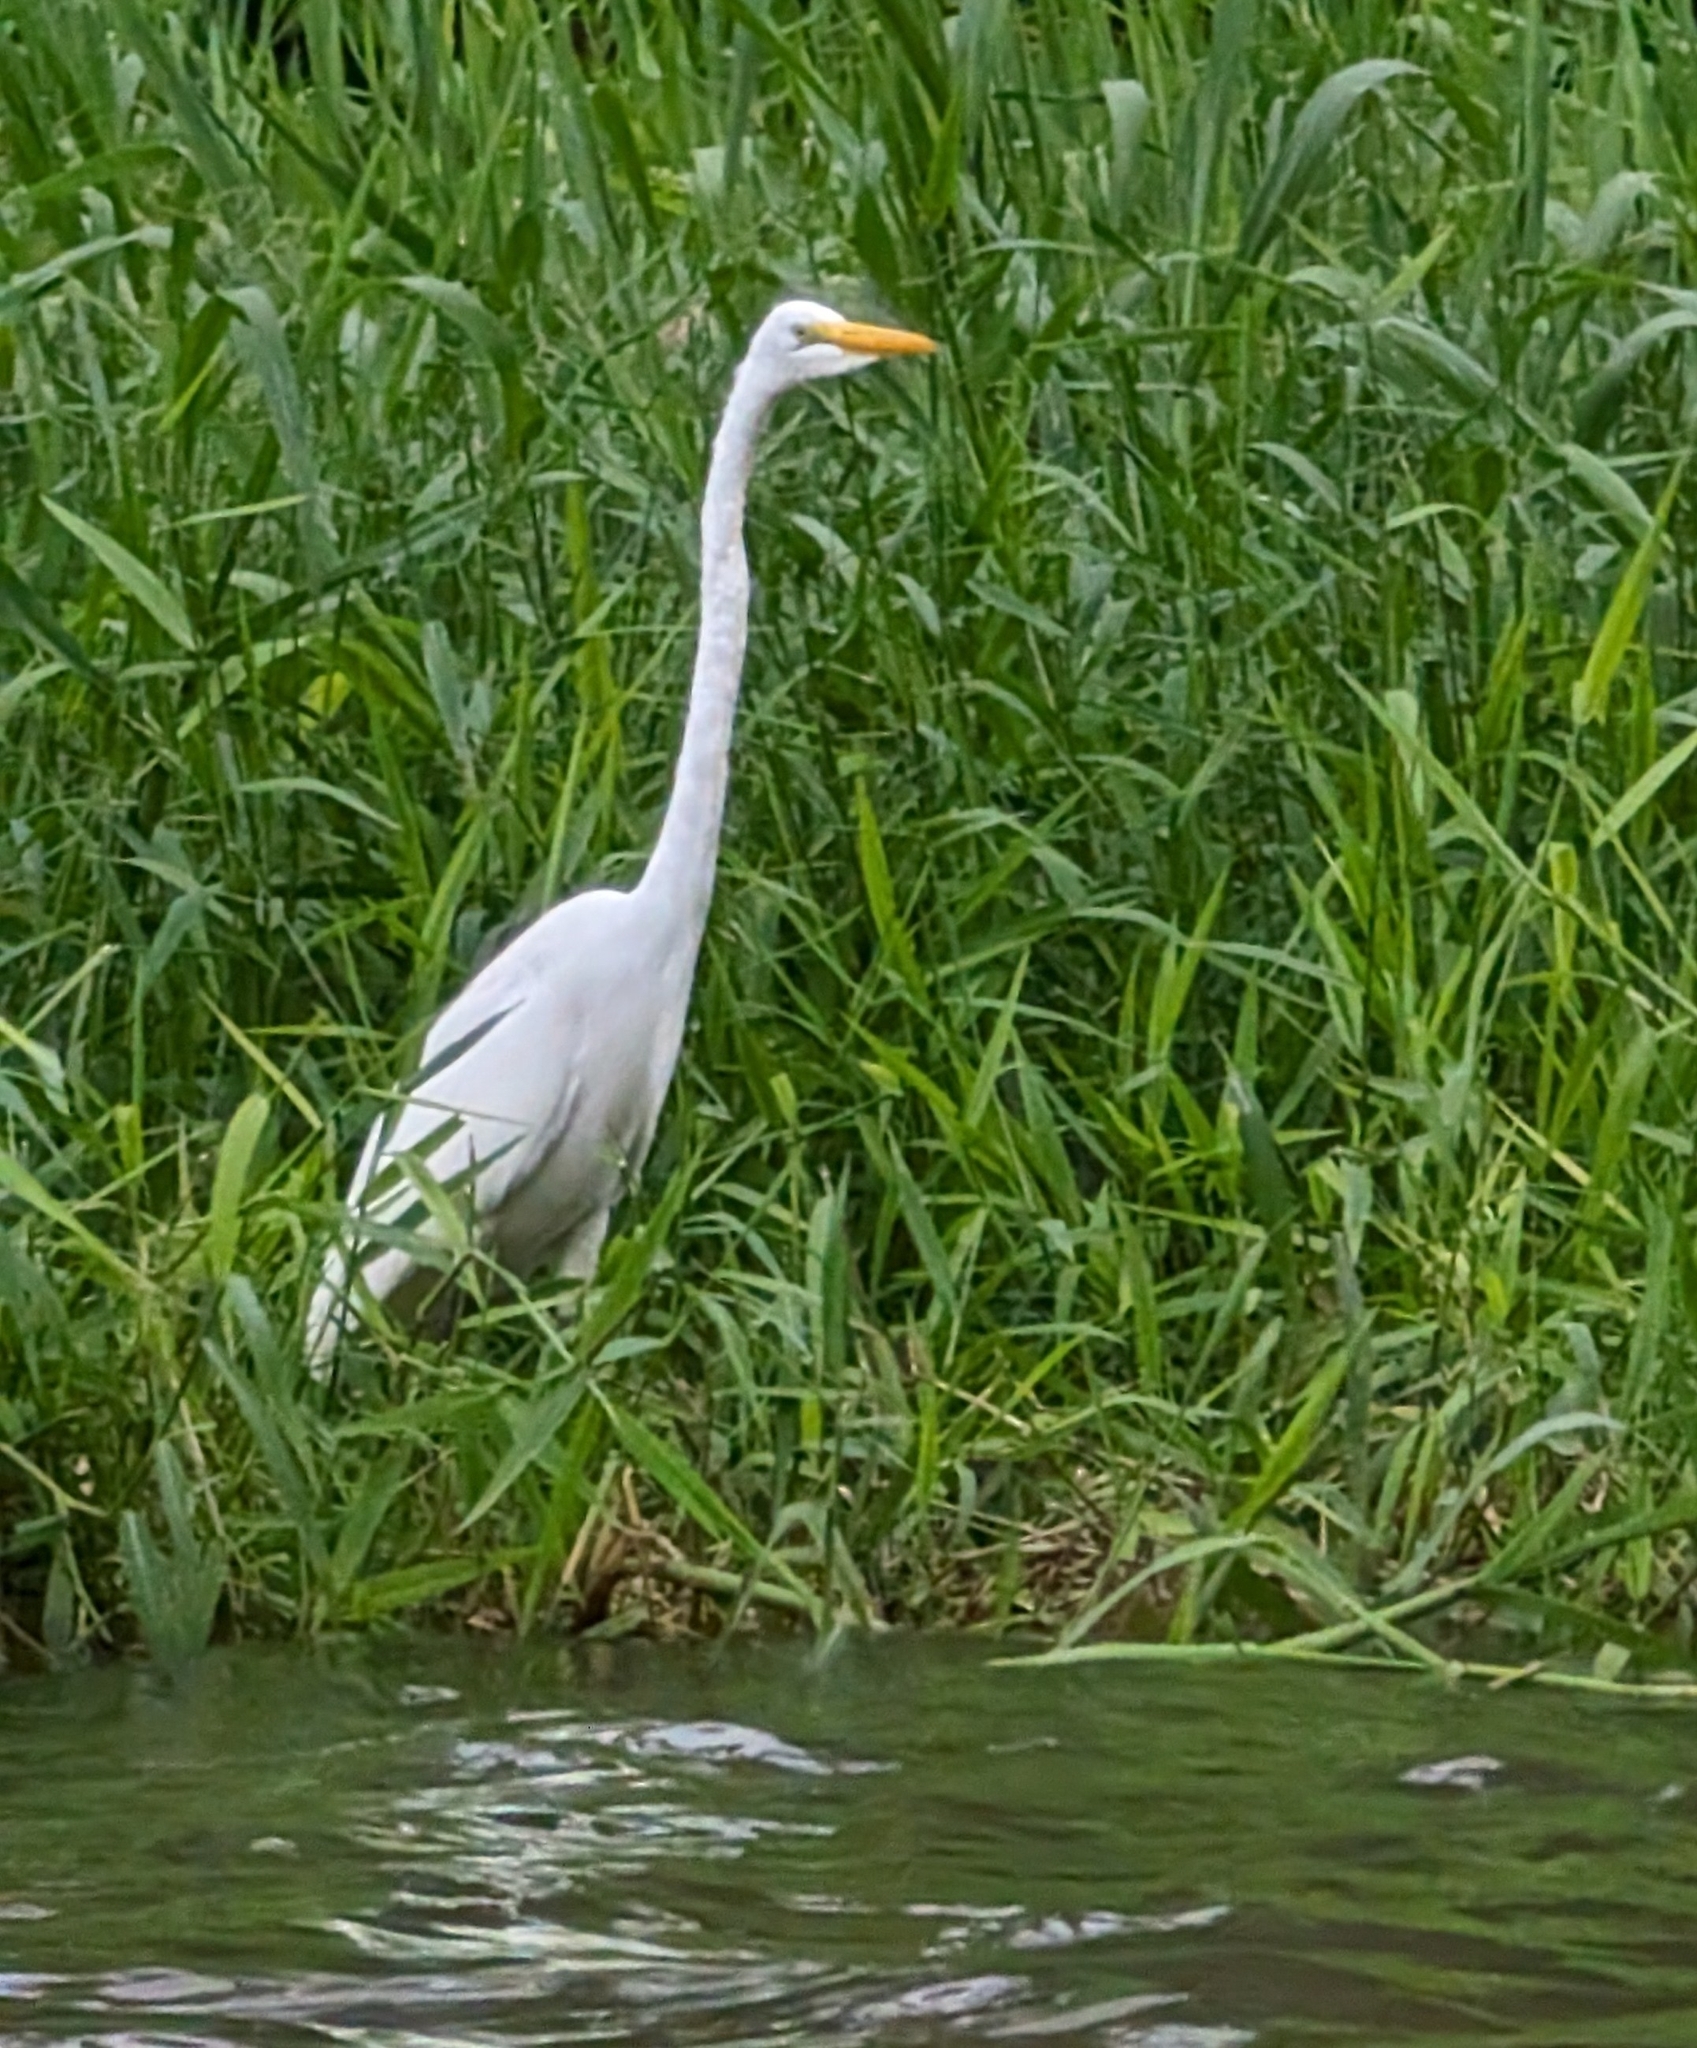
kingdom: Animalia
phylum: Chordata
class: Aves
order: Pelecaniformes
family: Ardeidae
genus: Ardea
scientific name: Ardea alba
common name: Great egret
